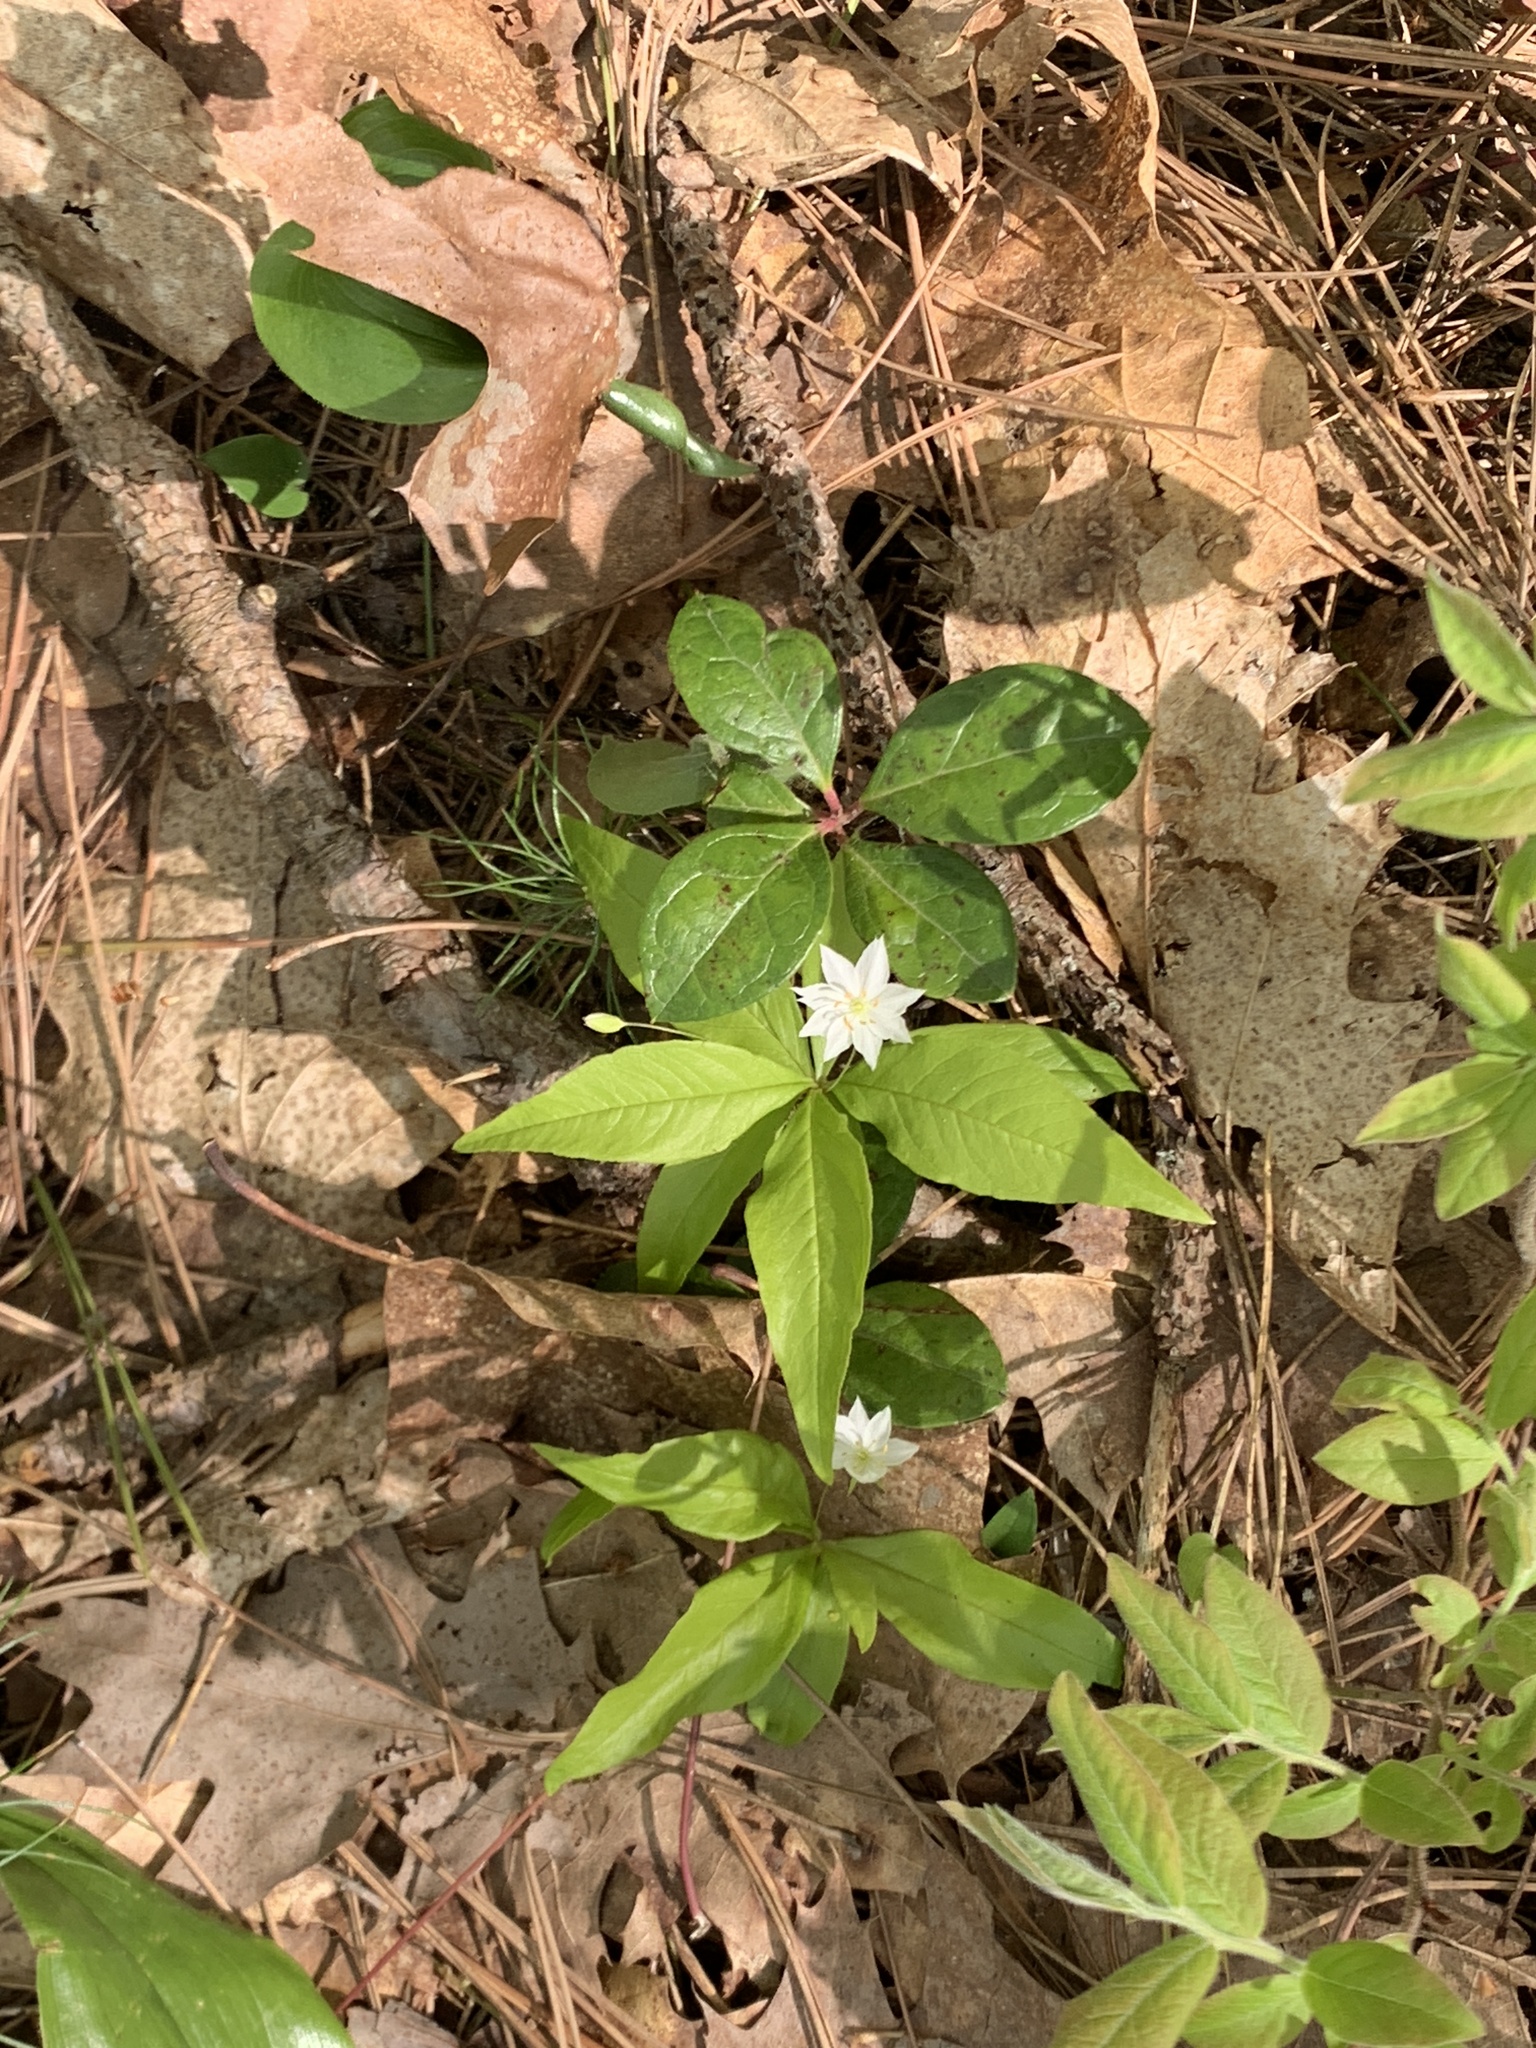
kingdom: Plantae
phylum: Tracheophyta
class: Magnoliopsida
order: Ericales
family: Primulaceae
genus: Lysimachia
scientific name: Lysimachia borealis
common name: American starflower
